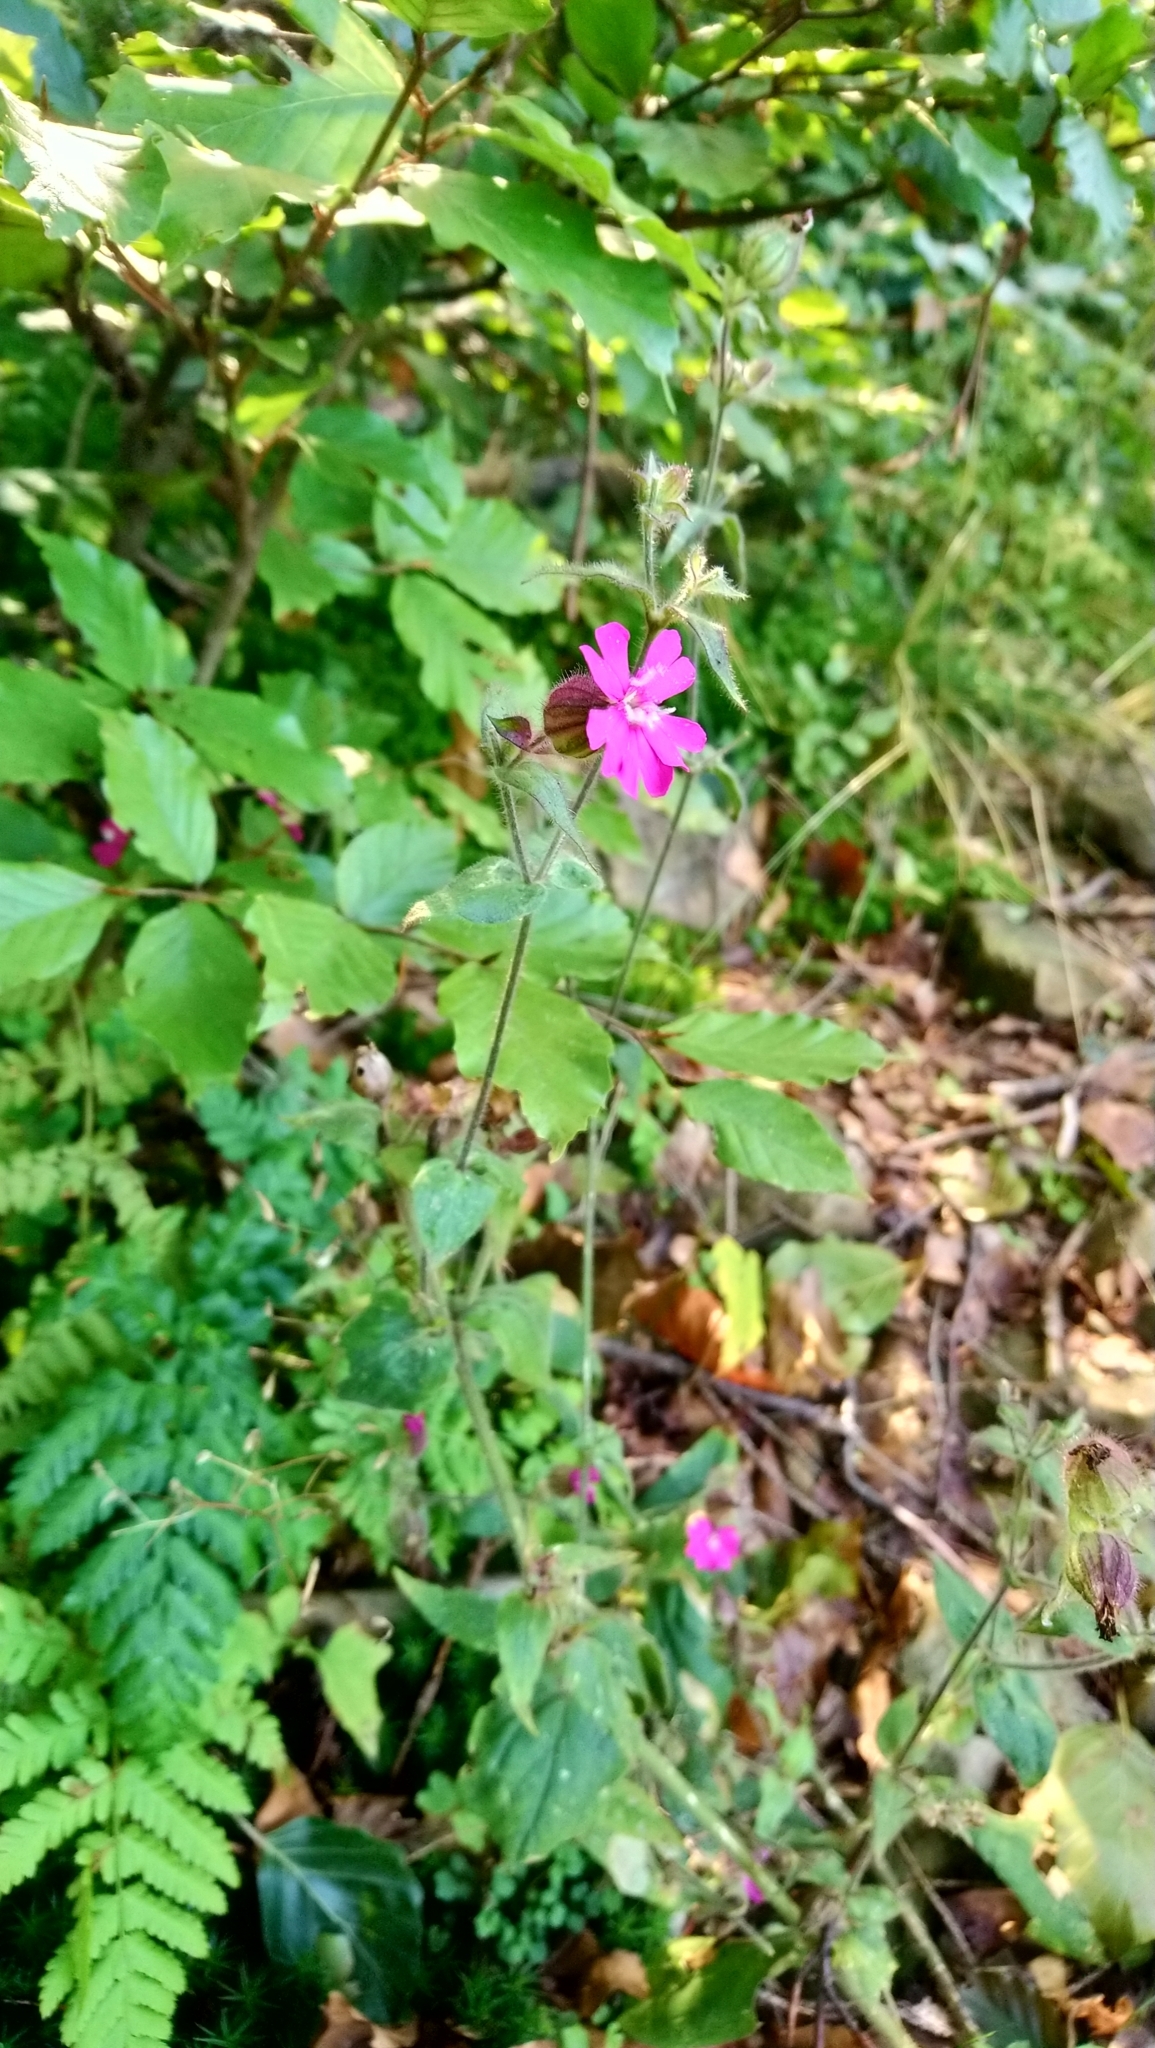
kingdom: Plantae
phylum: Tracheophyta
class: Magnoliopsida
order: Caryophyllales
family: Caryophyllaceae
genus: Silene
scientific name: Silene dioica
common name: Red campion
